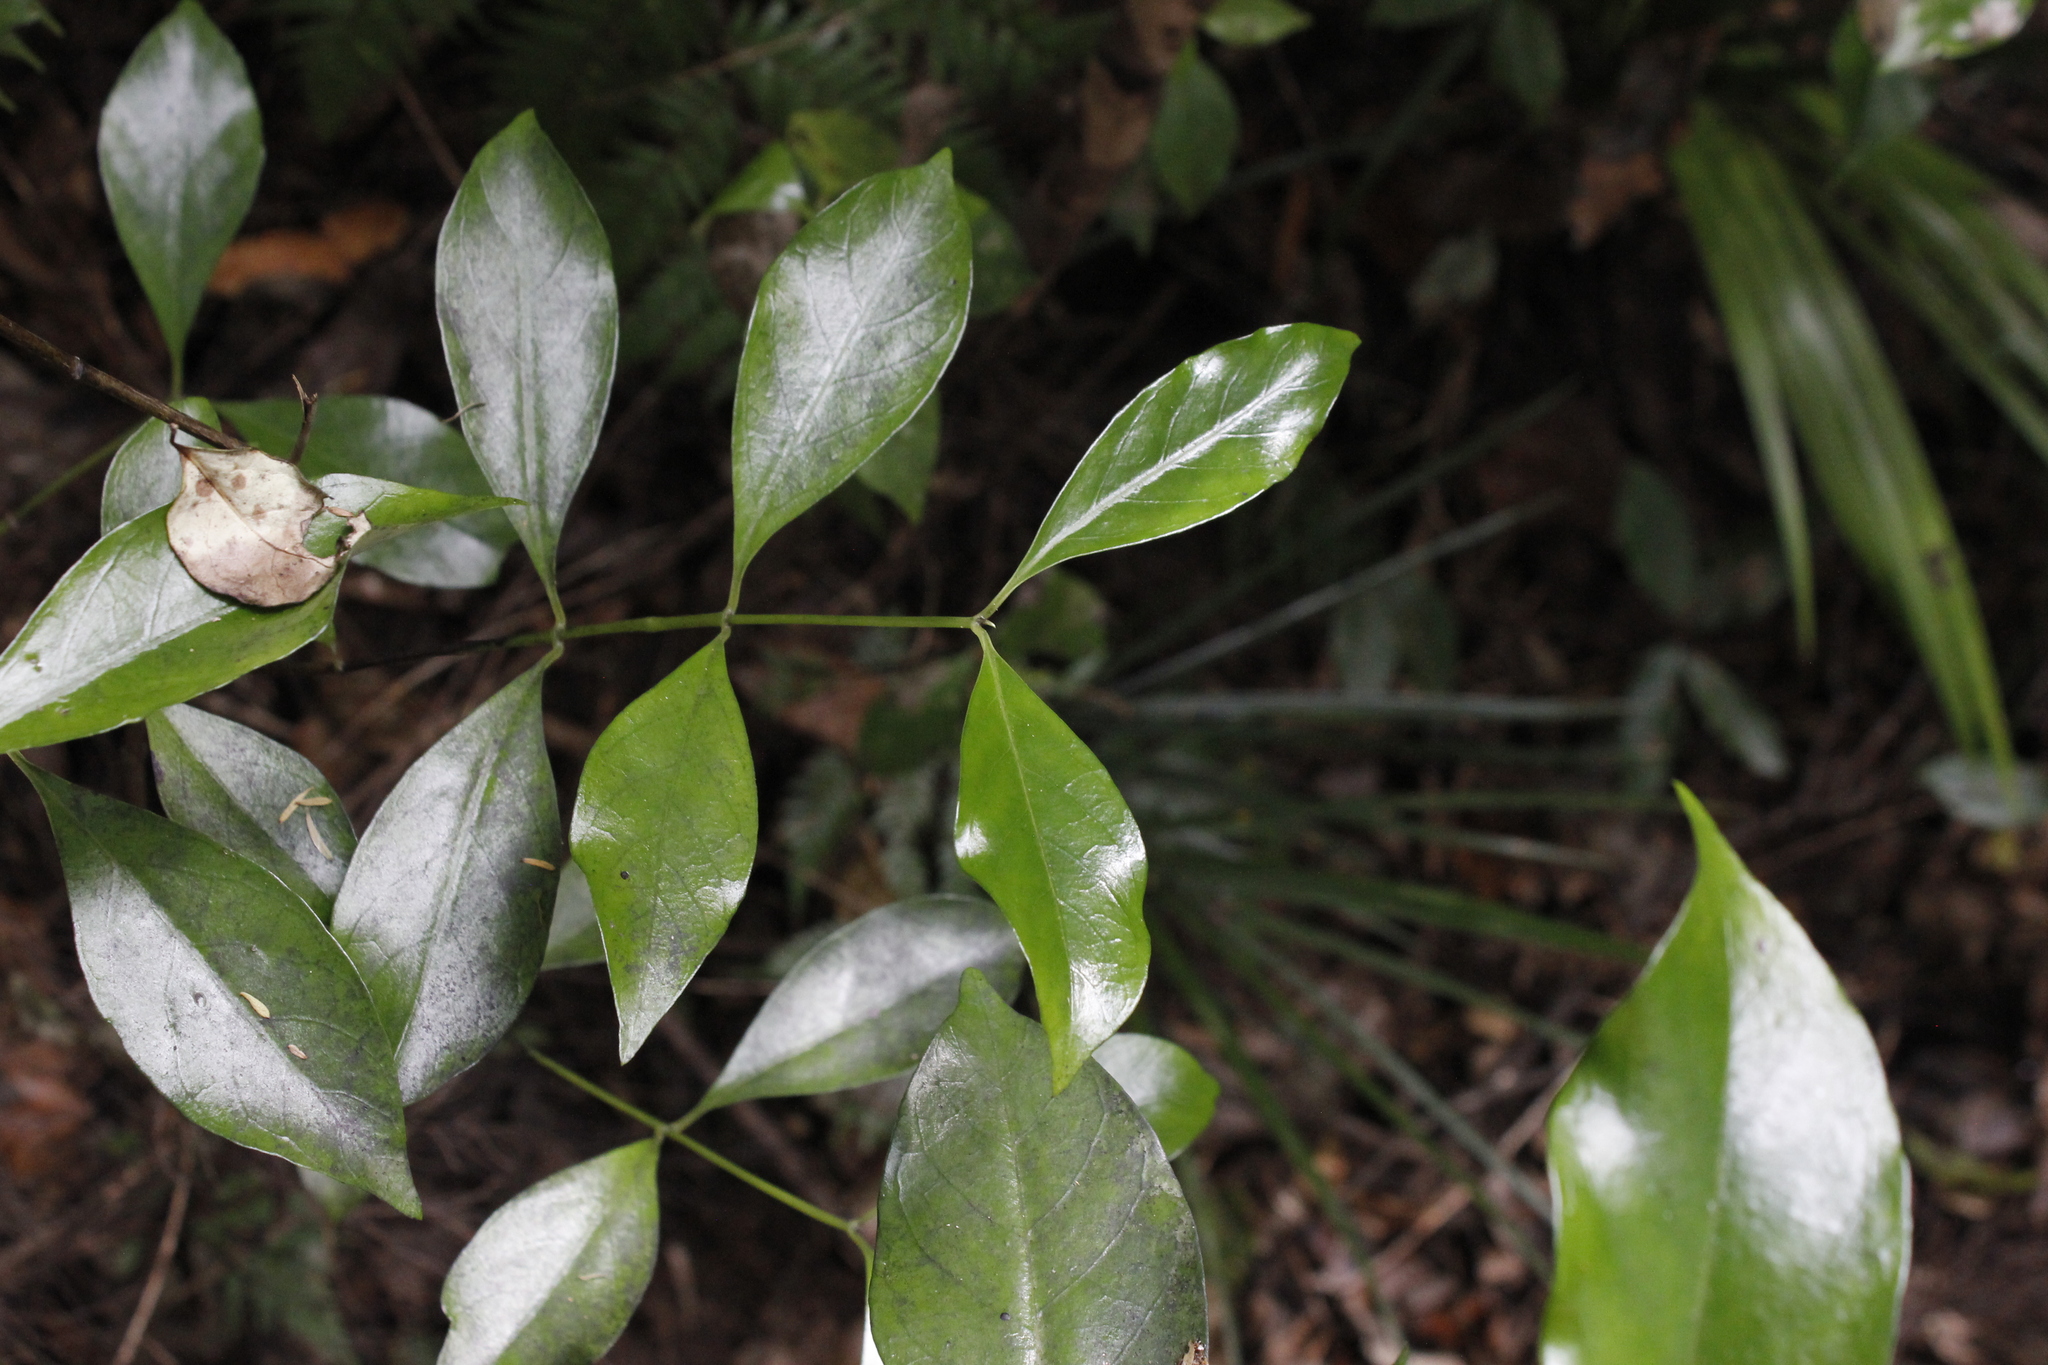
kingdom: Plantae
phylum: Tracheophyta
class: Magnoliopsida
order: Gentianales
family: Loganiaceae
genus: Geniostoma
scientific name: Geniostoma ligustrifolium
